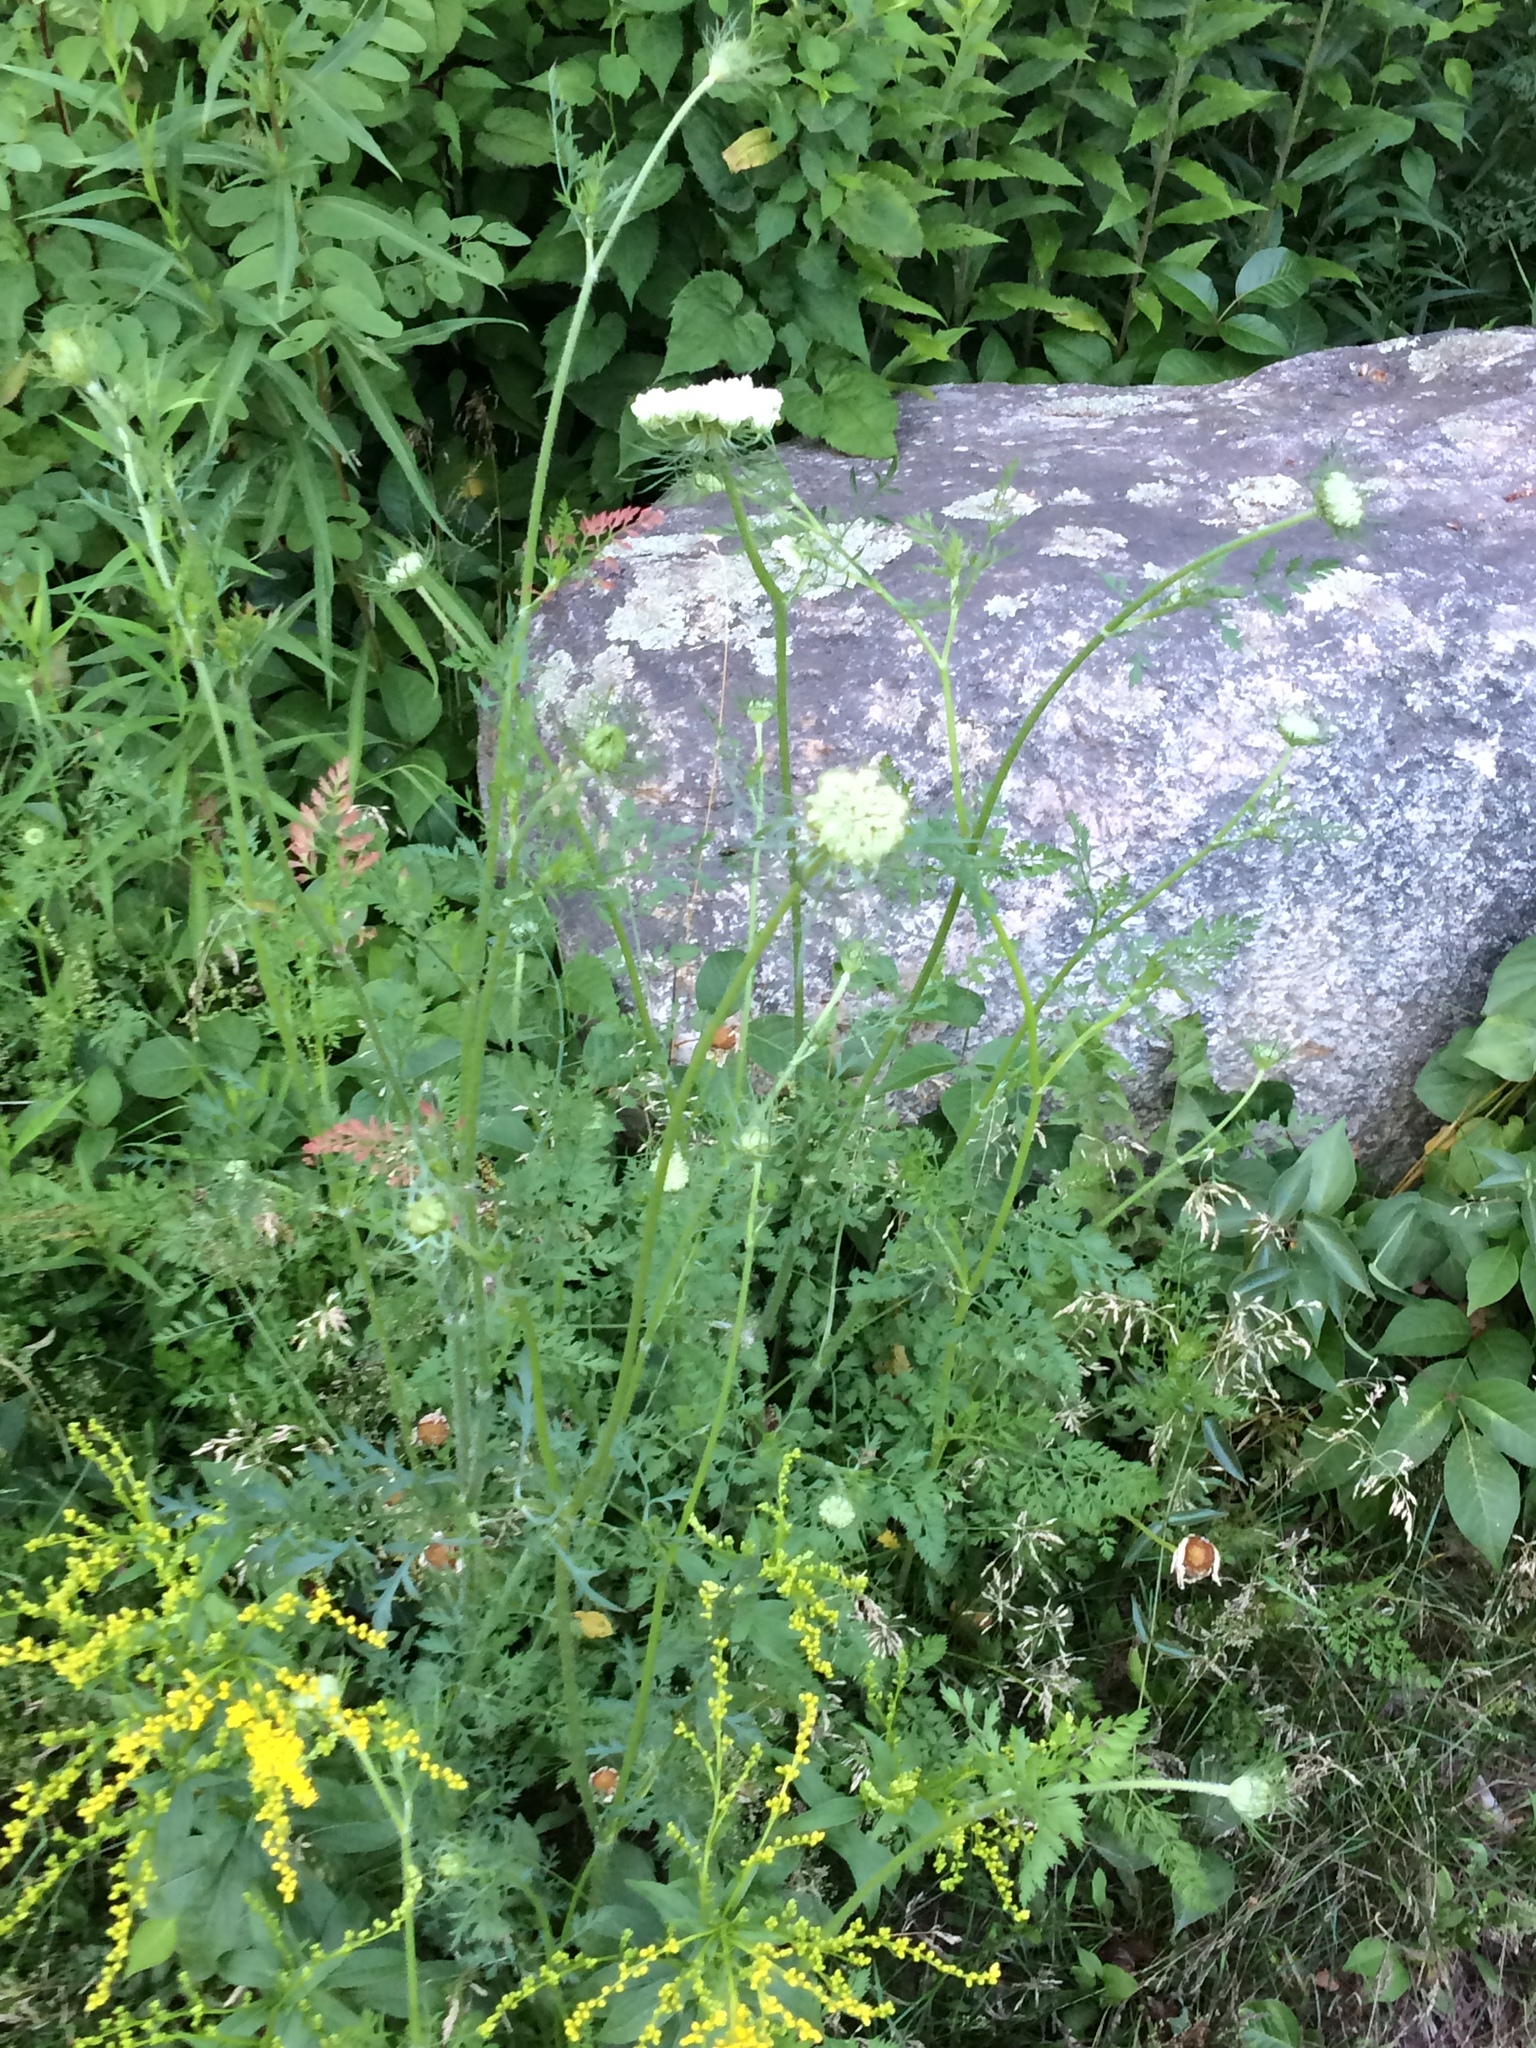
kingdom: Plantae
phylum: Tracheophyta
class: Magnoliopsida
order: Apiales
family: Apiaceae
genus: Daucus
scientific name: Daucus carota
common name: Wild carrot
